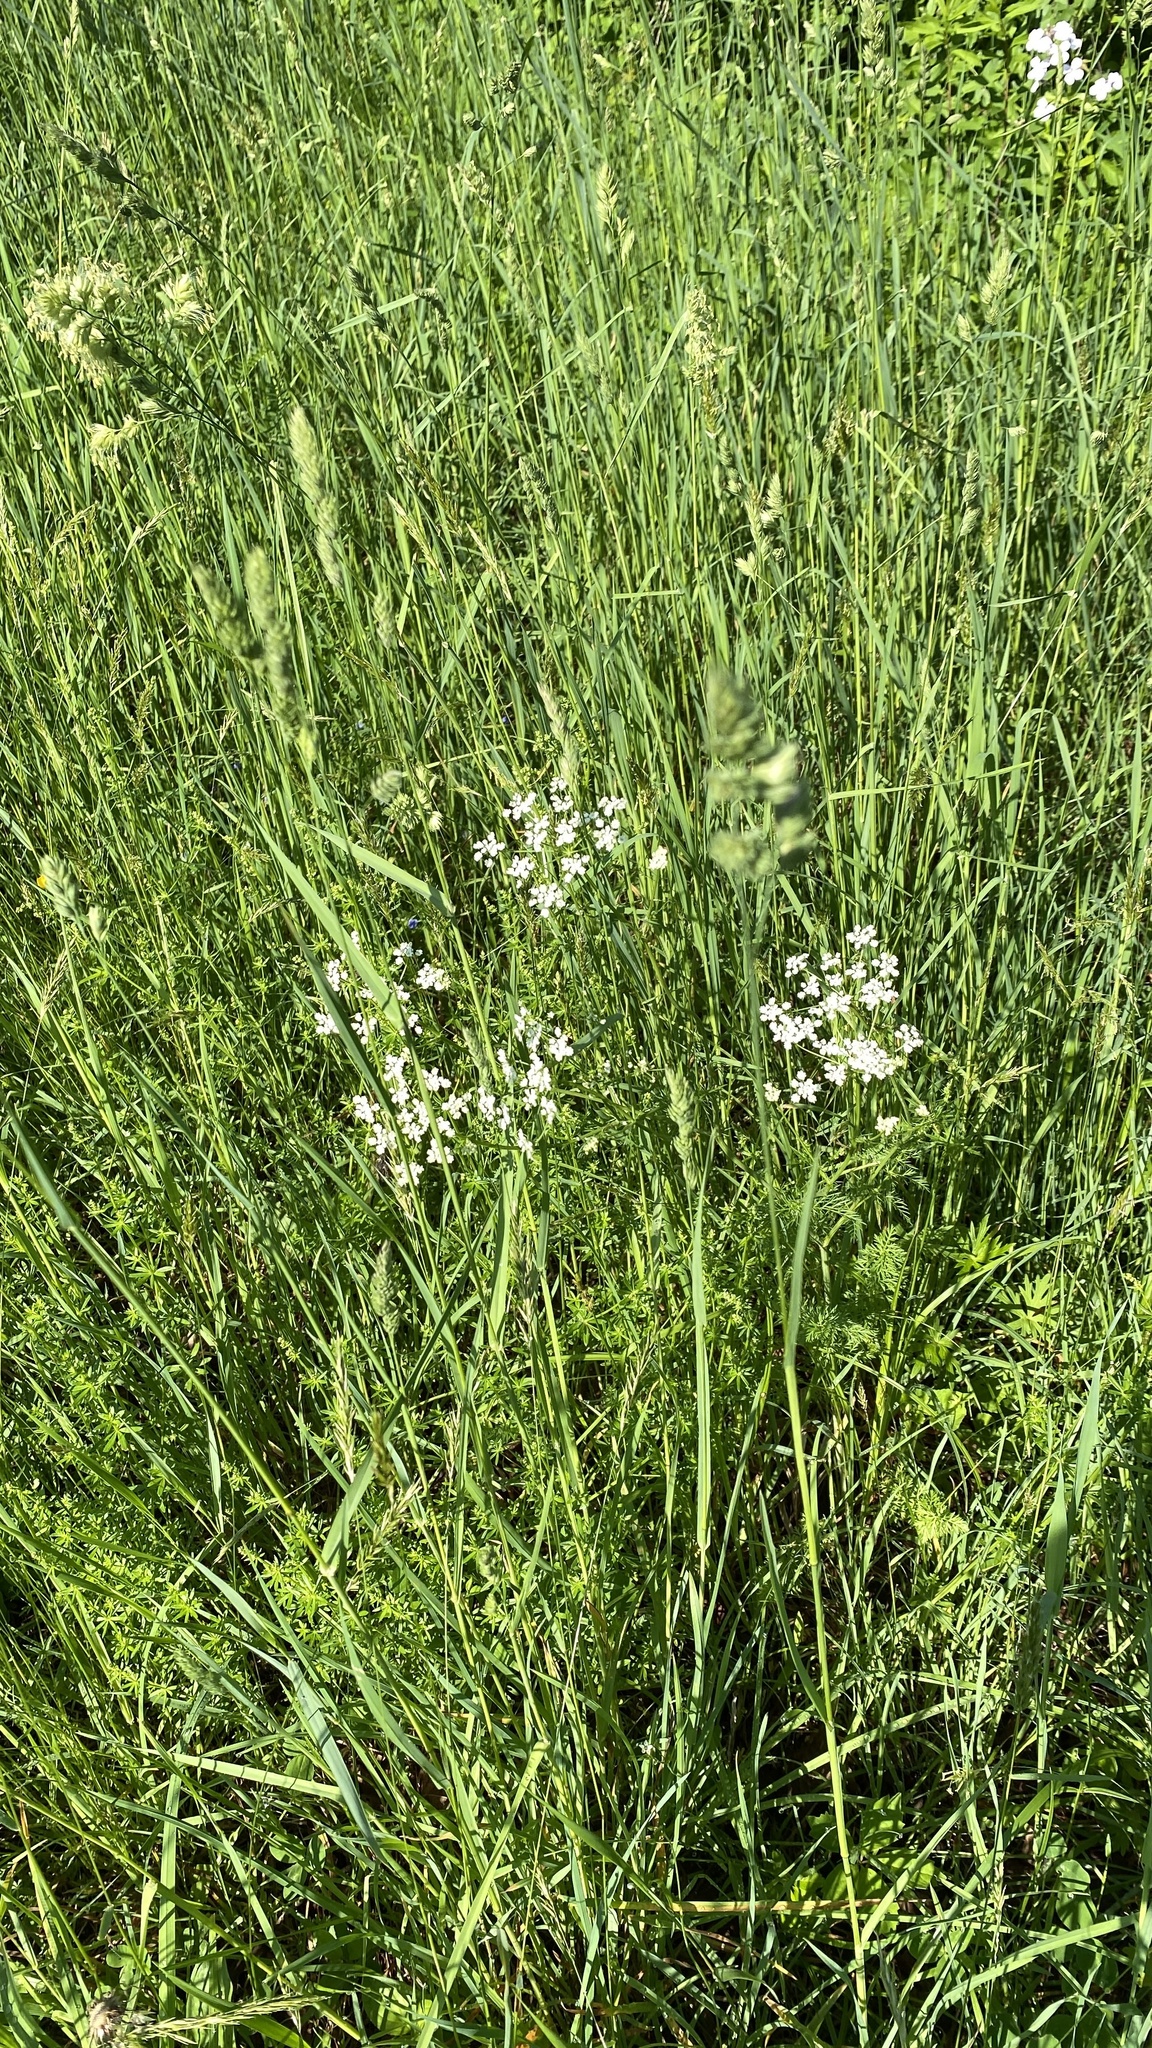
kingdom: Plantae
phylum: Tracheophyta
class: Magnoliopsida
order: Apiales
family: Apiaceae
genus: Anthriscus
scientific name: Anthriscus sylvestris
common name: Cow parsley
